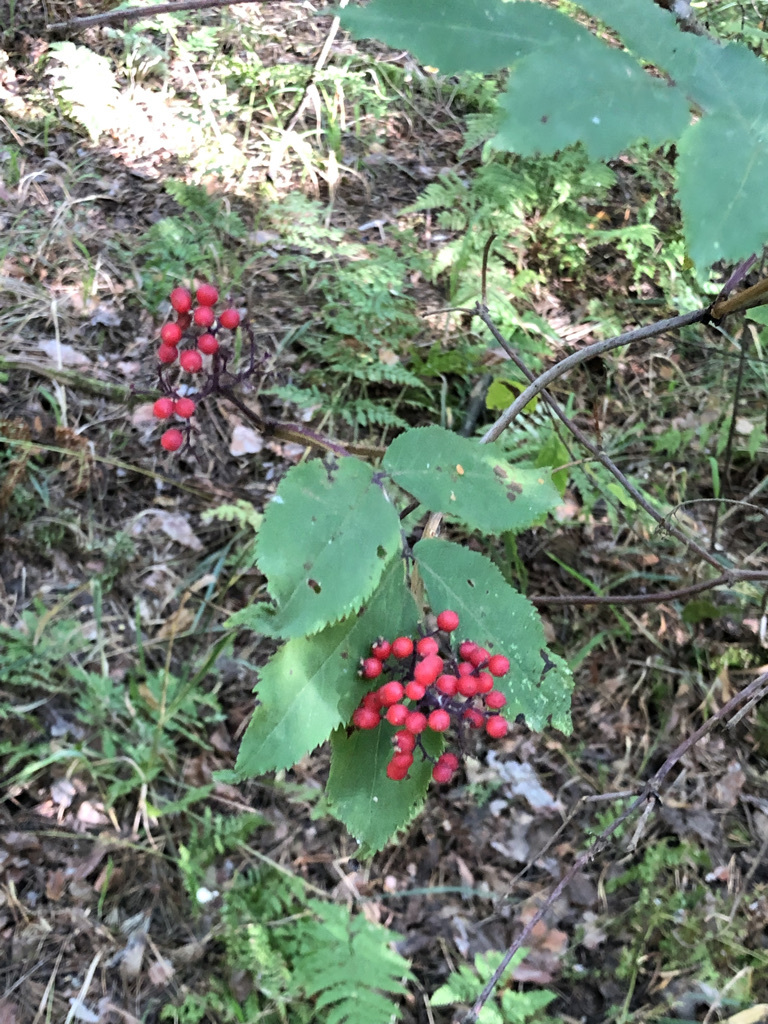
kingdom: Plantae
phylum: Tracheophyta
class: Magnoliopsida
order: Dipsacales
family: Viburnaceae
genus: Sambucus
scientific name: Sambucus racemosa
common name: Red-berried elder
